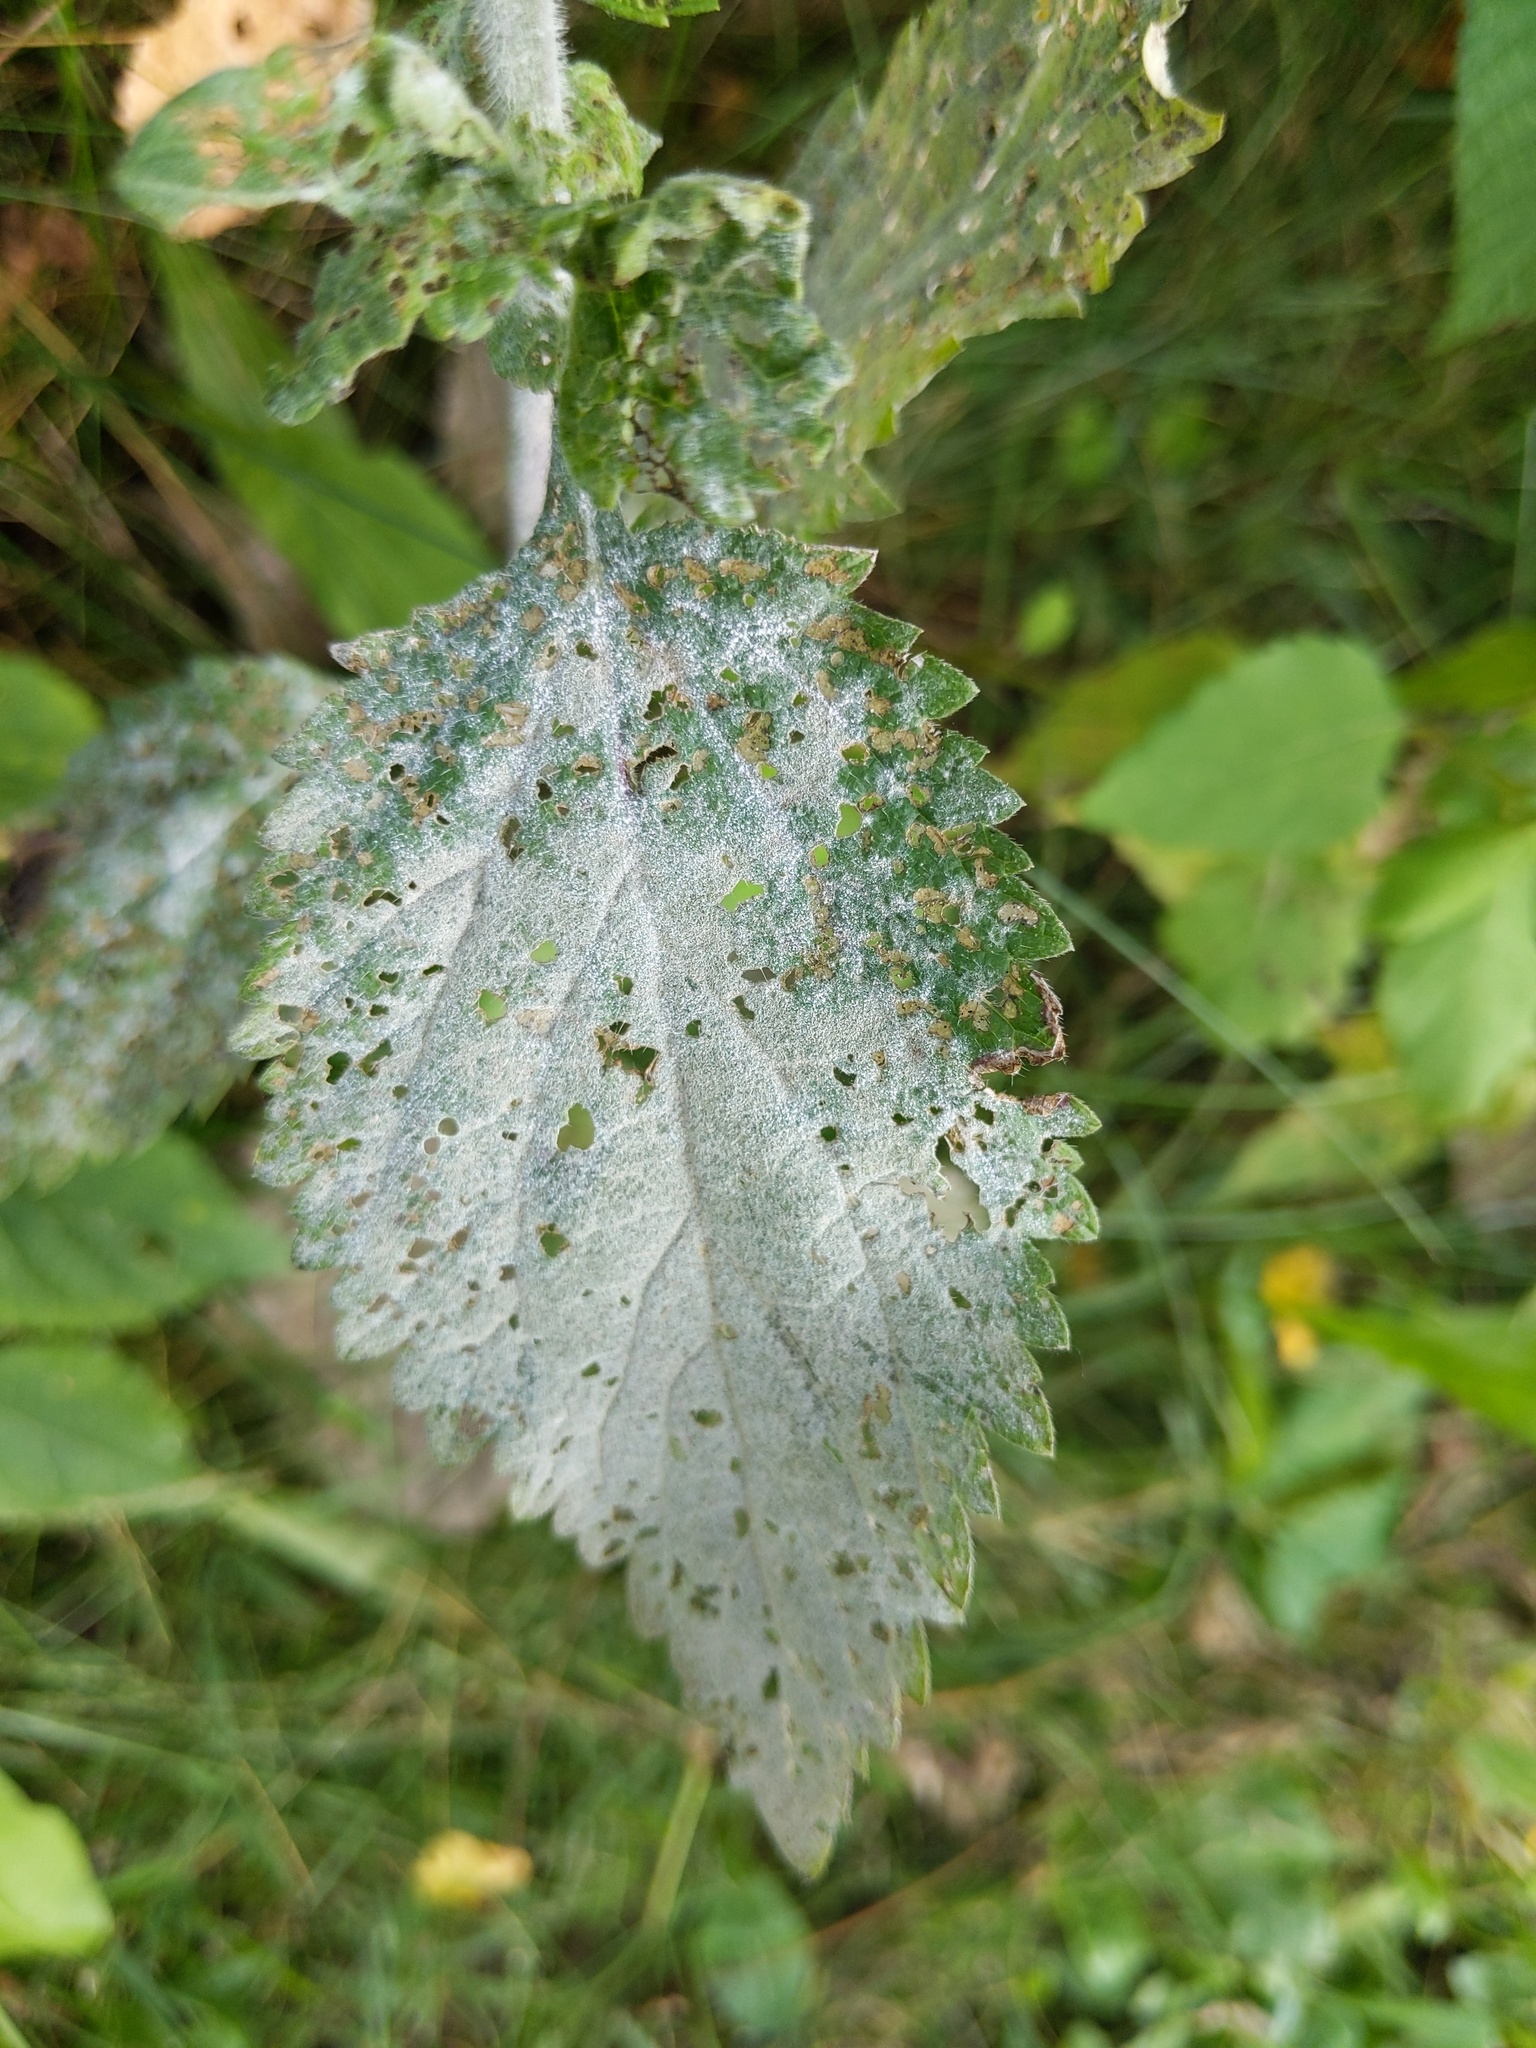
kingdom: Plantae
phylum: Tracheophyta
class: Magnoliopsida
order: Lamiales
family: Verbenaceae
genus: Verbena
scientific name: Verbena urticifolia
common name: Nettle-leaved vervain
